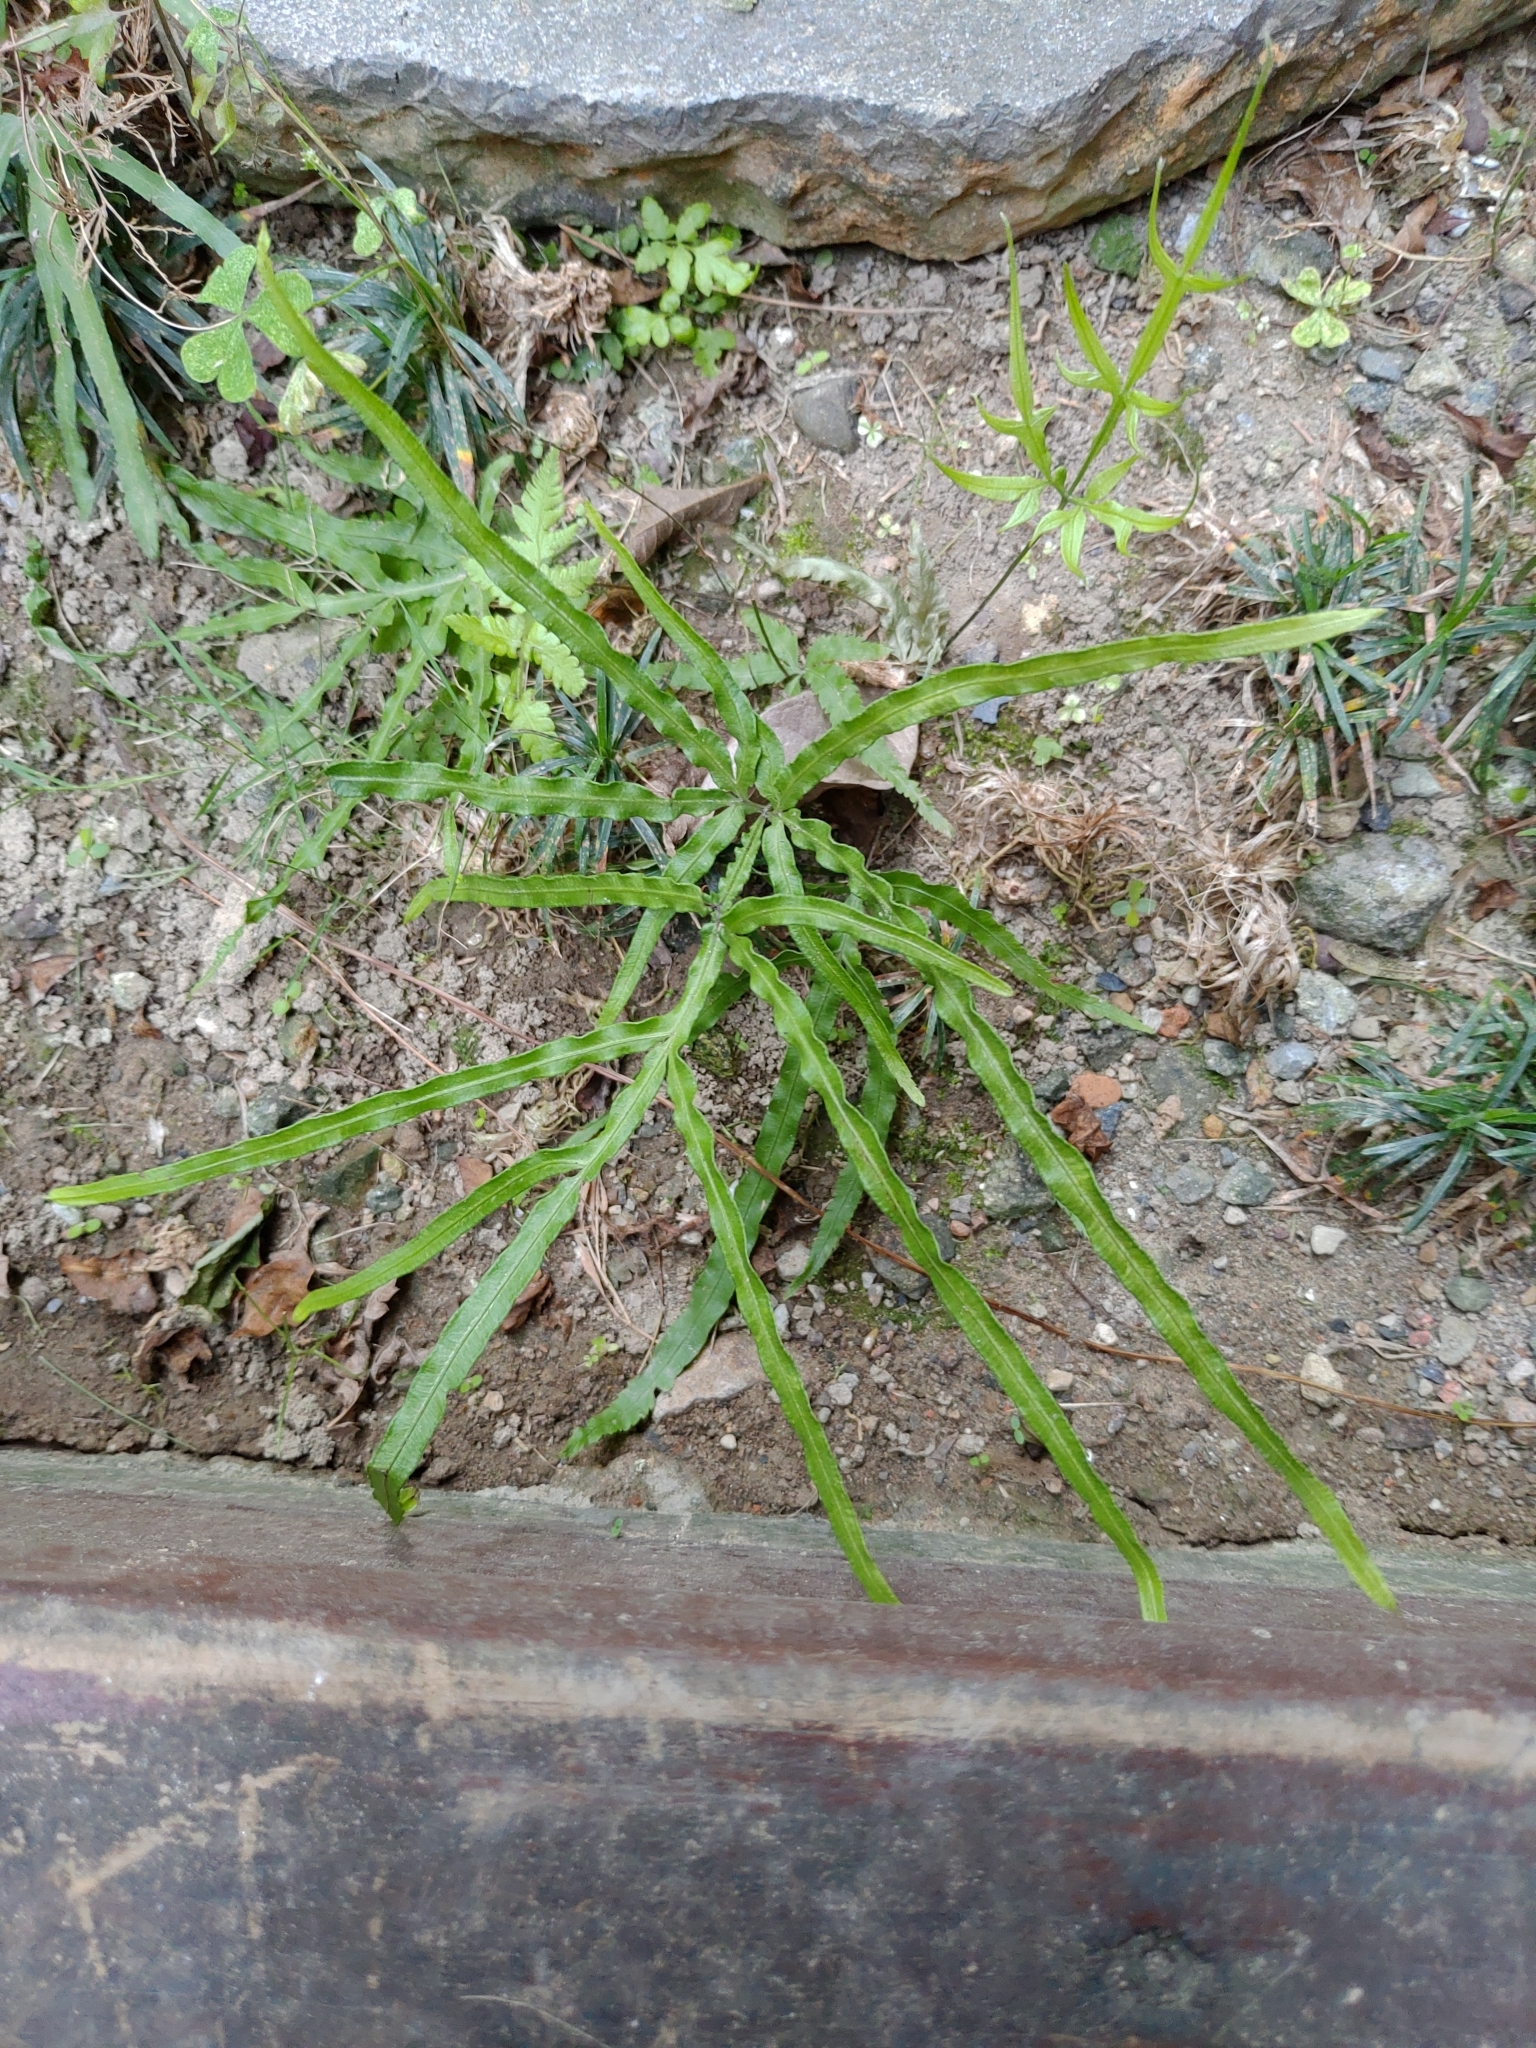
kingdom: Plantae
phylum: Tracheophyta
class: Polypodiopsida
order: Polypodiales
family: Pteridaceae
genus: Pteris
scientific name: Pteris multifida
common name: Spider brake
